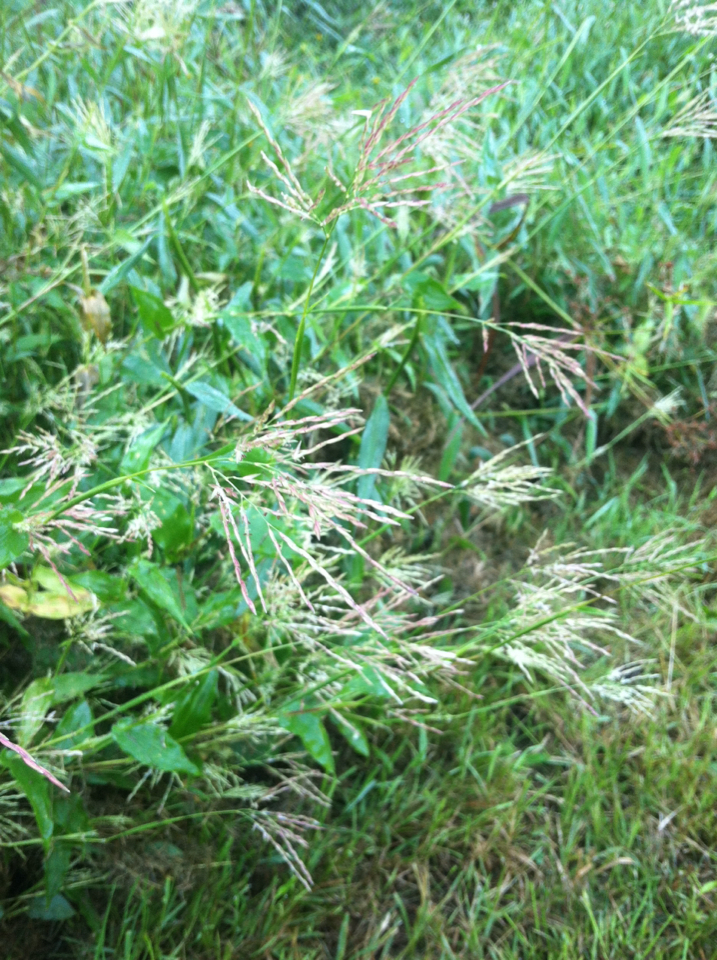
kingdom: Plantae
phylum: Tracheophyta
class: Liliopsida
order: Poales
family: Poaceae
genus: Arthraxon
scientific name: Arthraxon hispidus
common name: Small carpgrass
